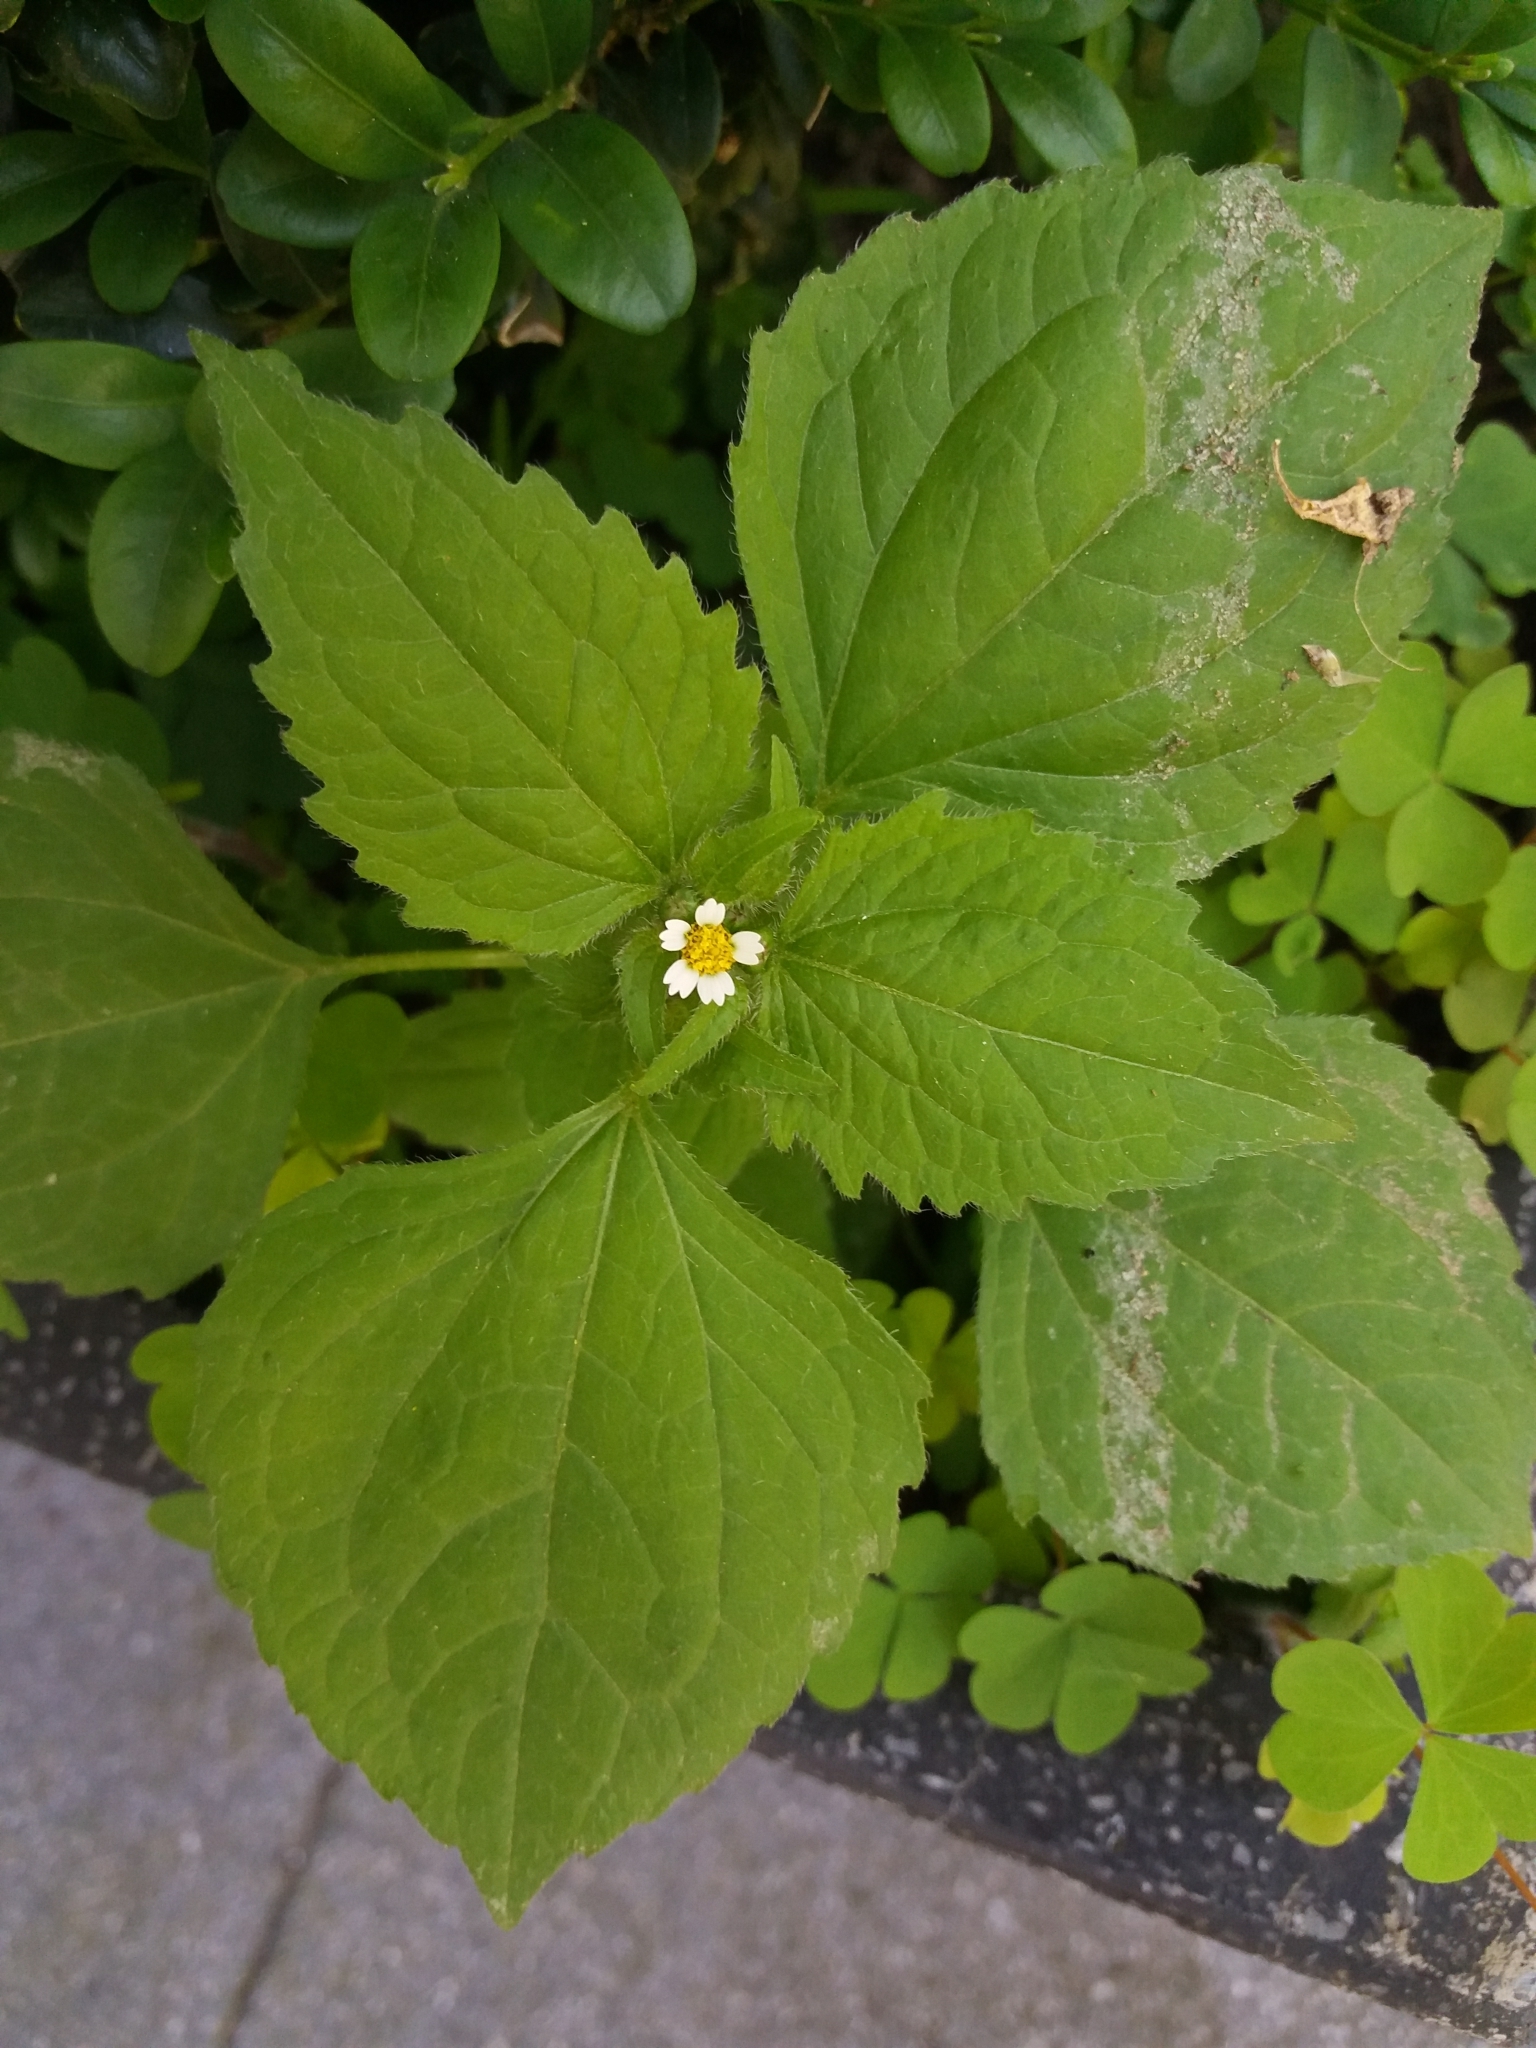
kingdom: Plantae
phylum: Tracheophyta
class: Magnoliopsida
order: Asterales
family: Asteraceae
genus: Galinsoga
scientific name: Galinsoga quadriradiata
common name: Shaggy soldier
